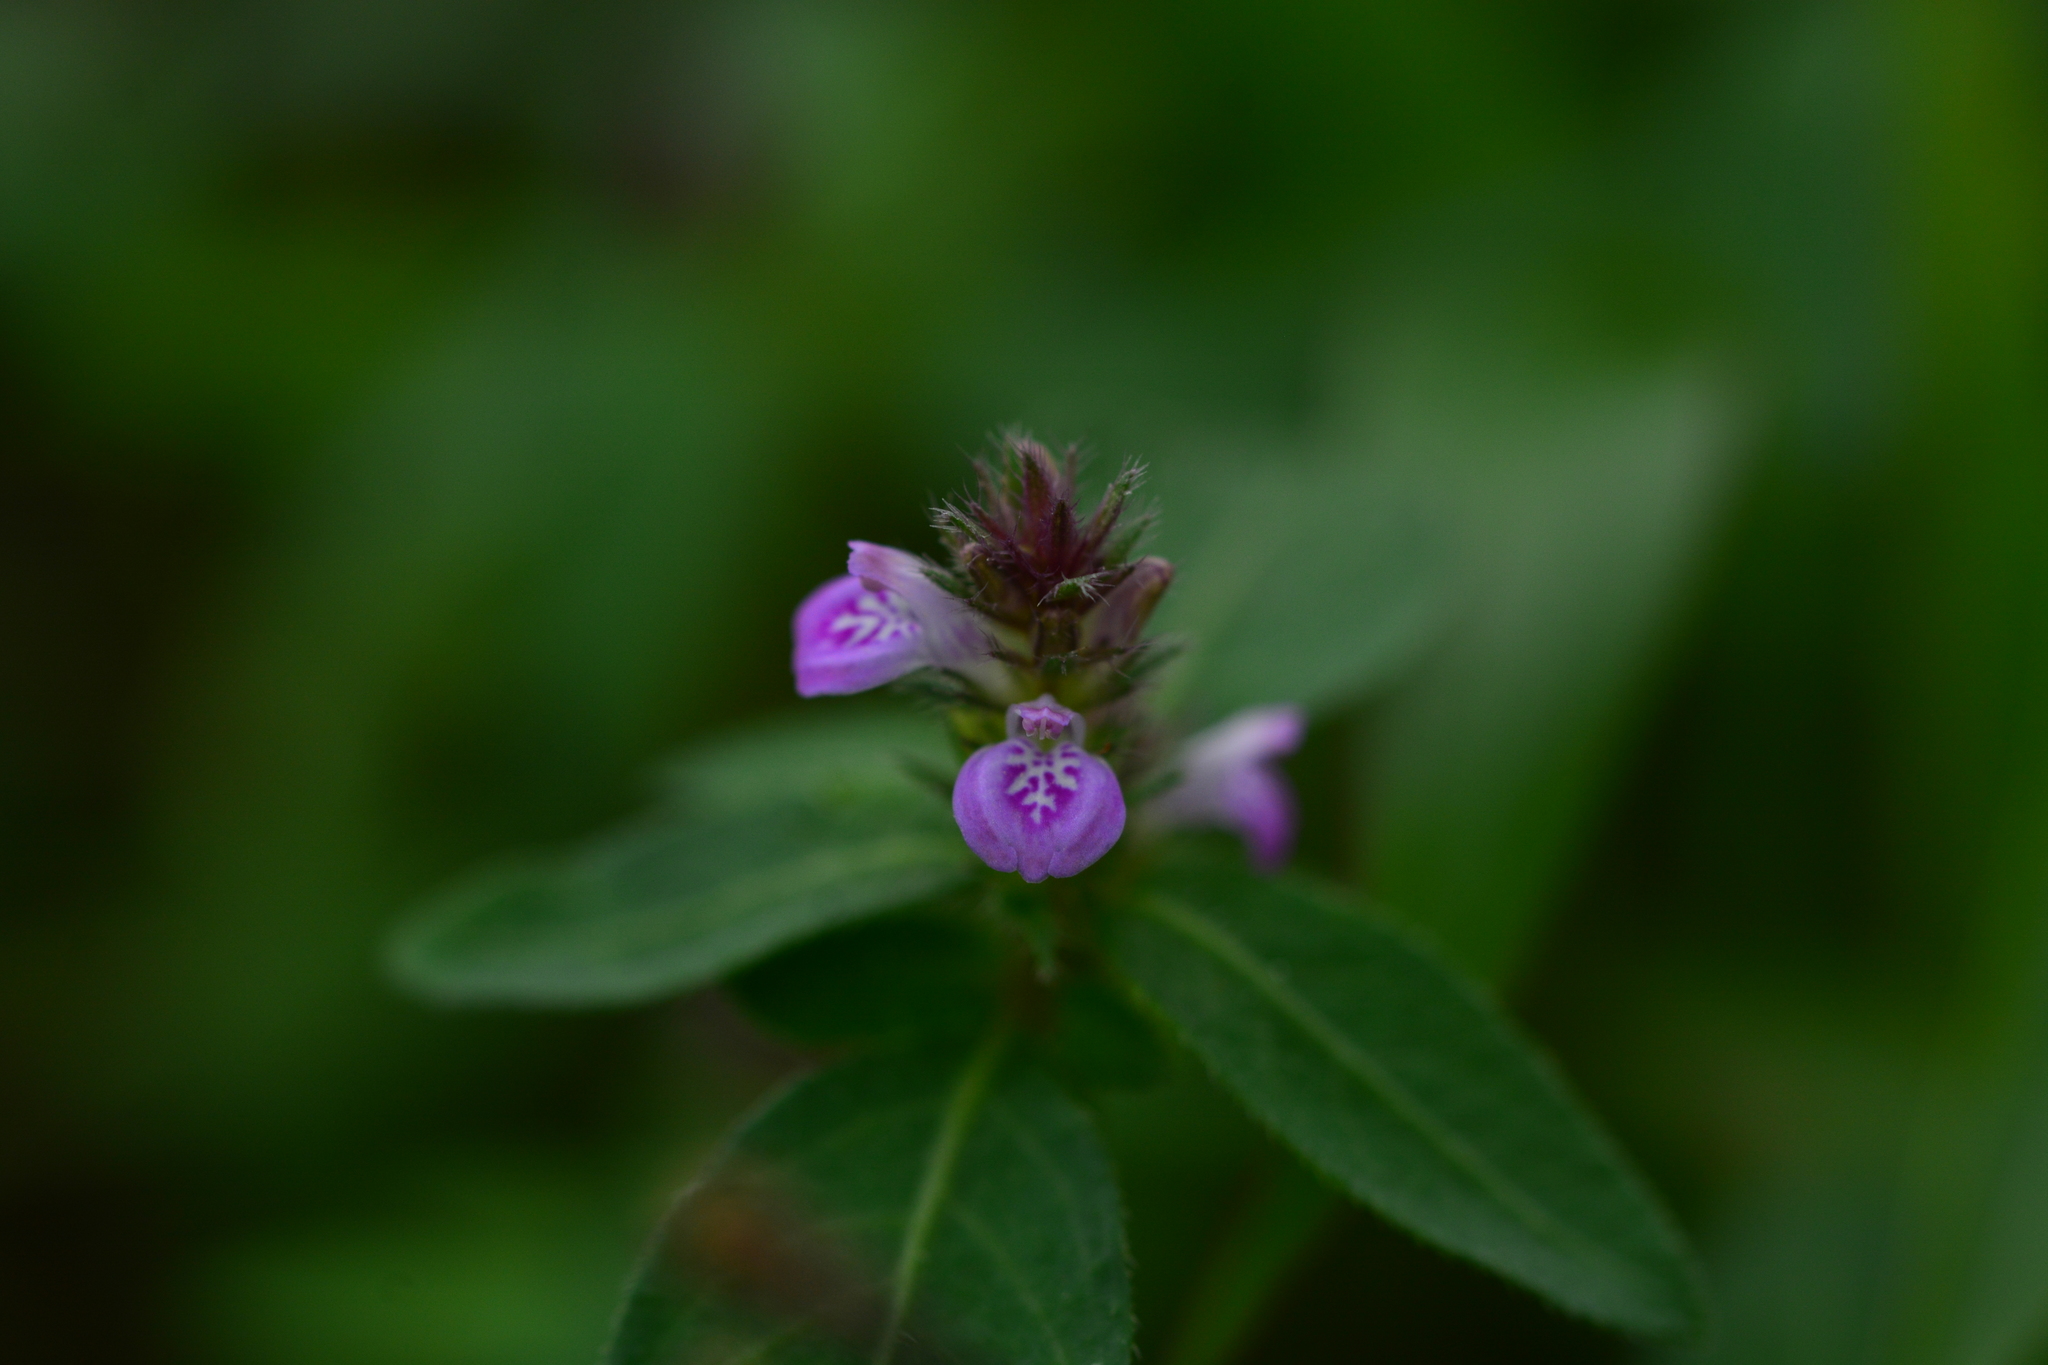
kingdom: Plantae
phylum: Tracheophyta
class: Magnoliopsida
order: Lamiales
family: Acanthaceae
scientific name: Acanthaceae
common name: Acanthaceae
